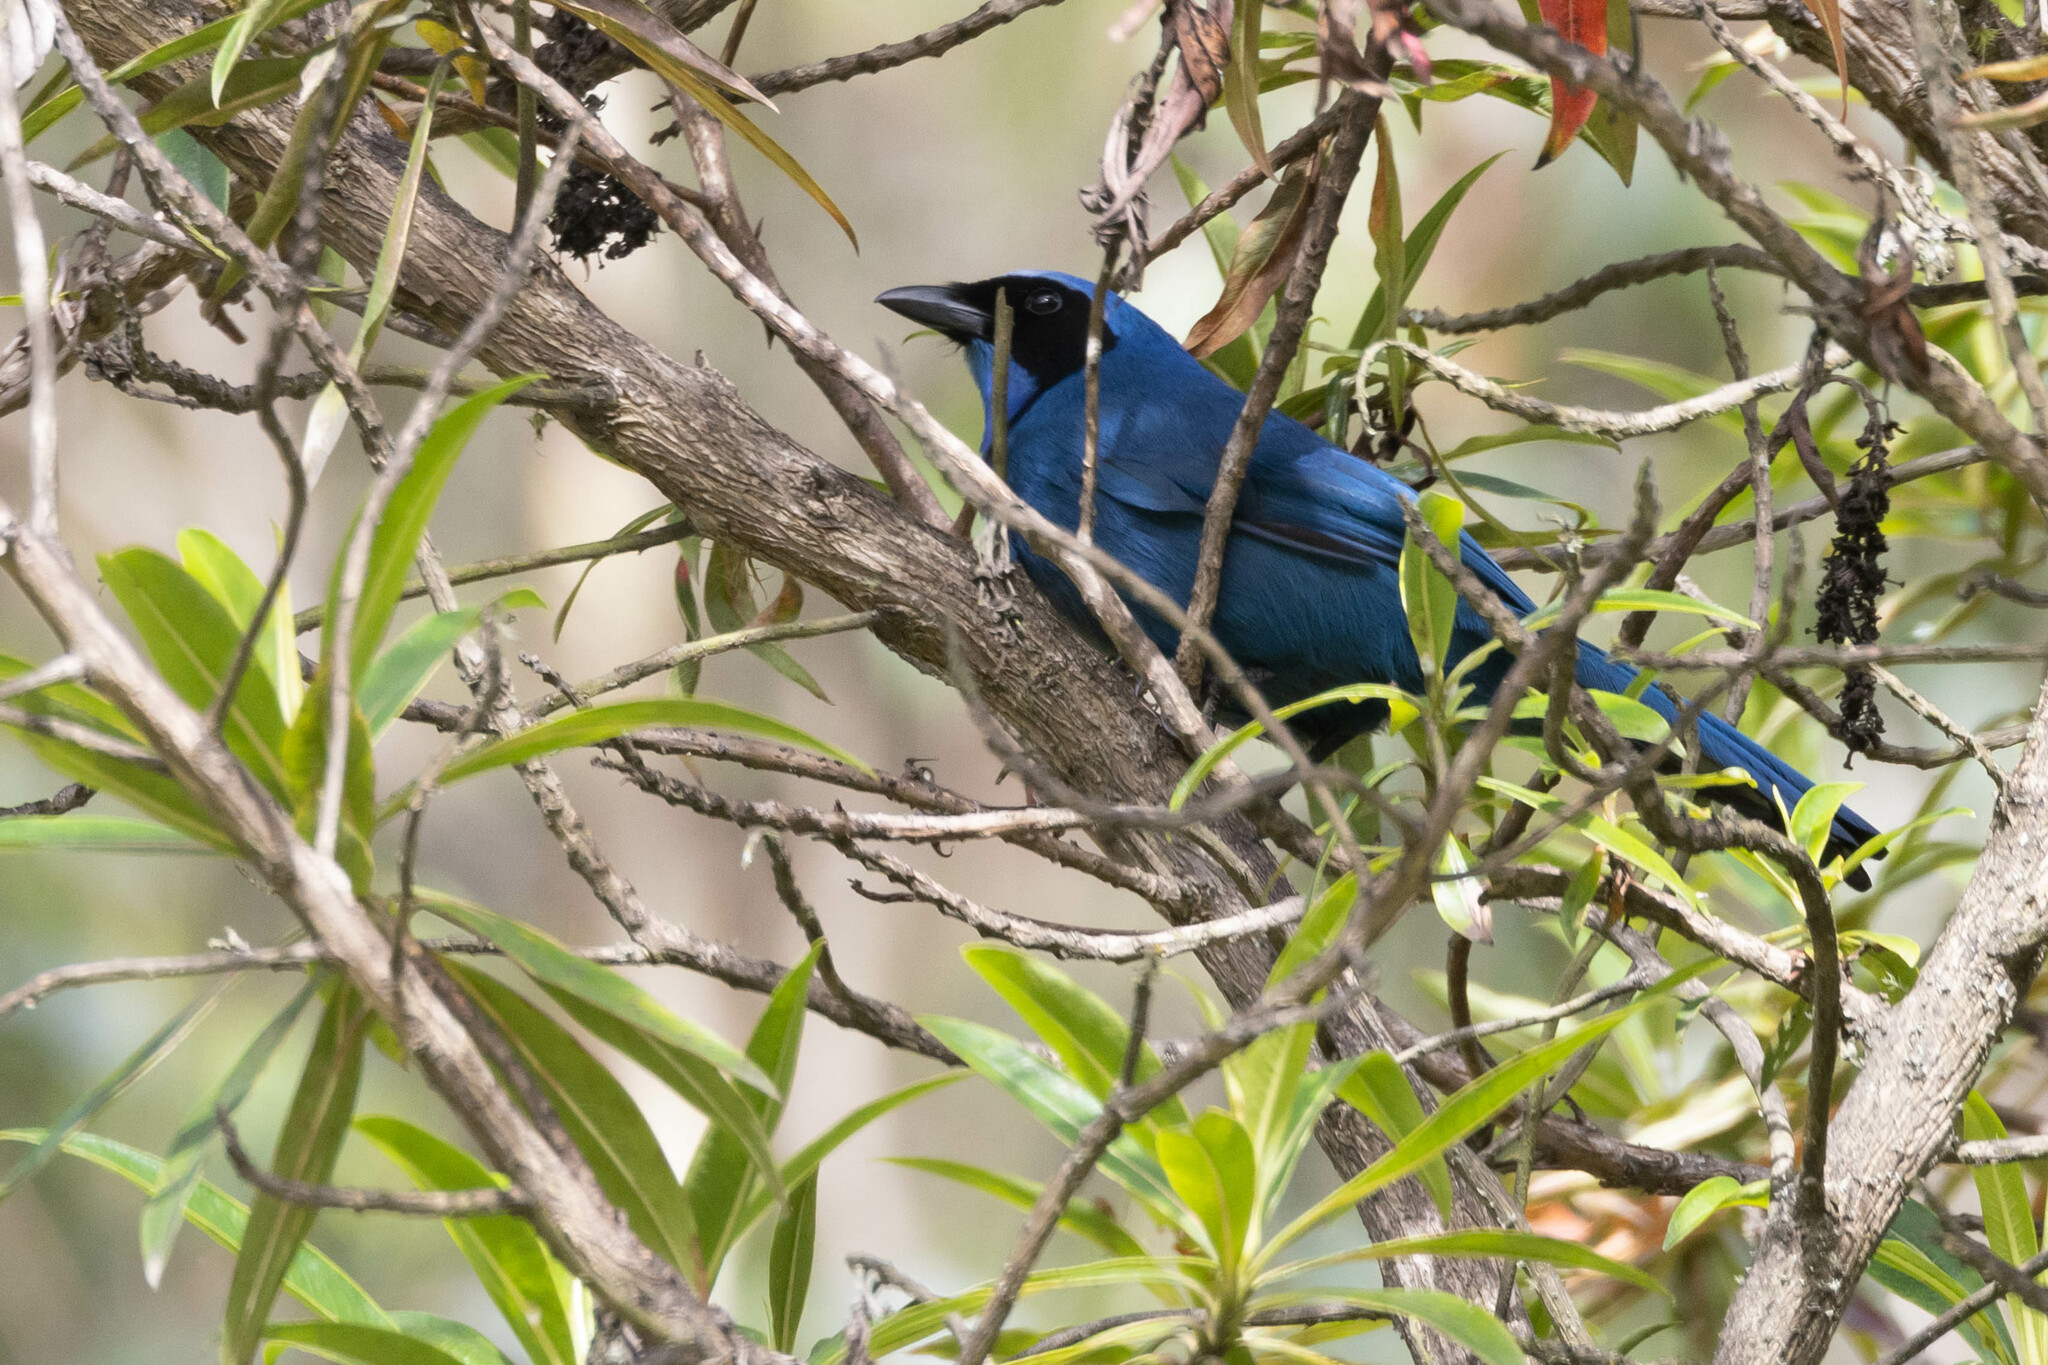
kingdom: Animalia
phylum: Chordata
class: Aves
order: Passeriformes
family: Corvidae
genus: Cyanolyca
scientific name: Cyanolyca turcosa
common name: Turquoise jay
